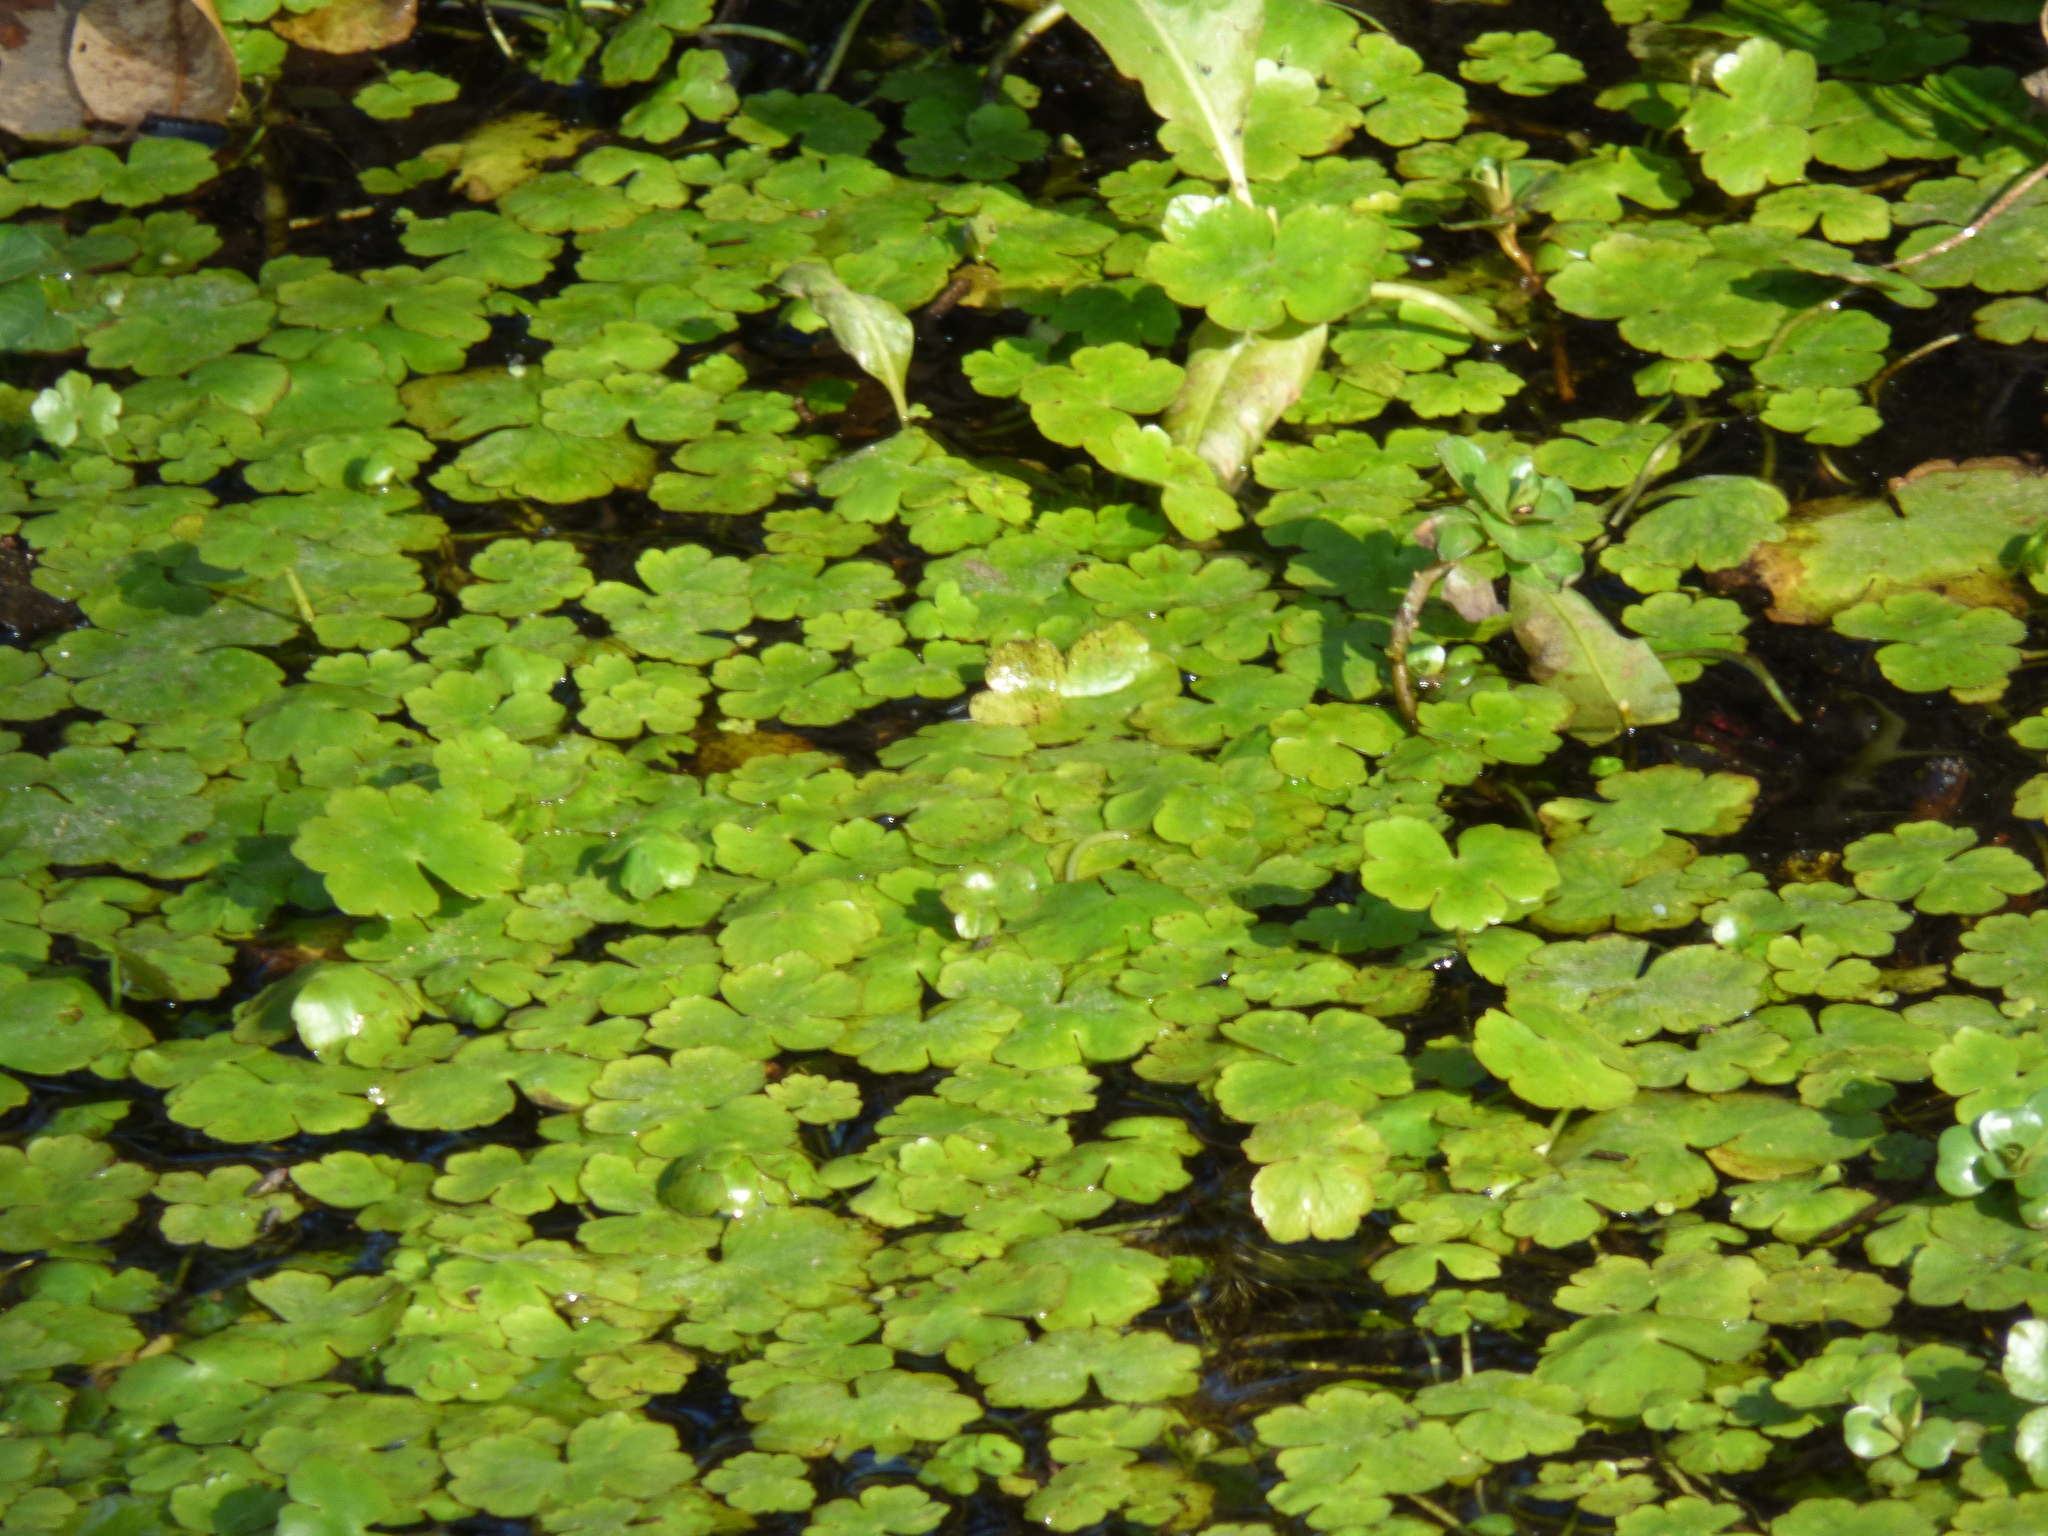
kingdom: Plantae
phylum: Tracheophyta
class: Magnoliopsida
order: Apiales
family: Araliaceae
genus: Hydrocotyle
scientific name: Hydrocotyle ranunculoides
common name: Floating pennywort
